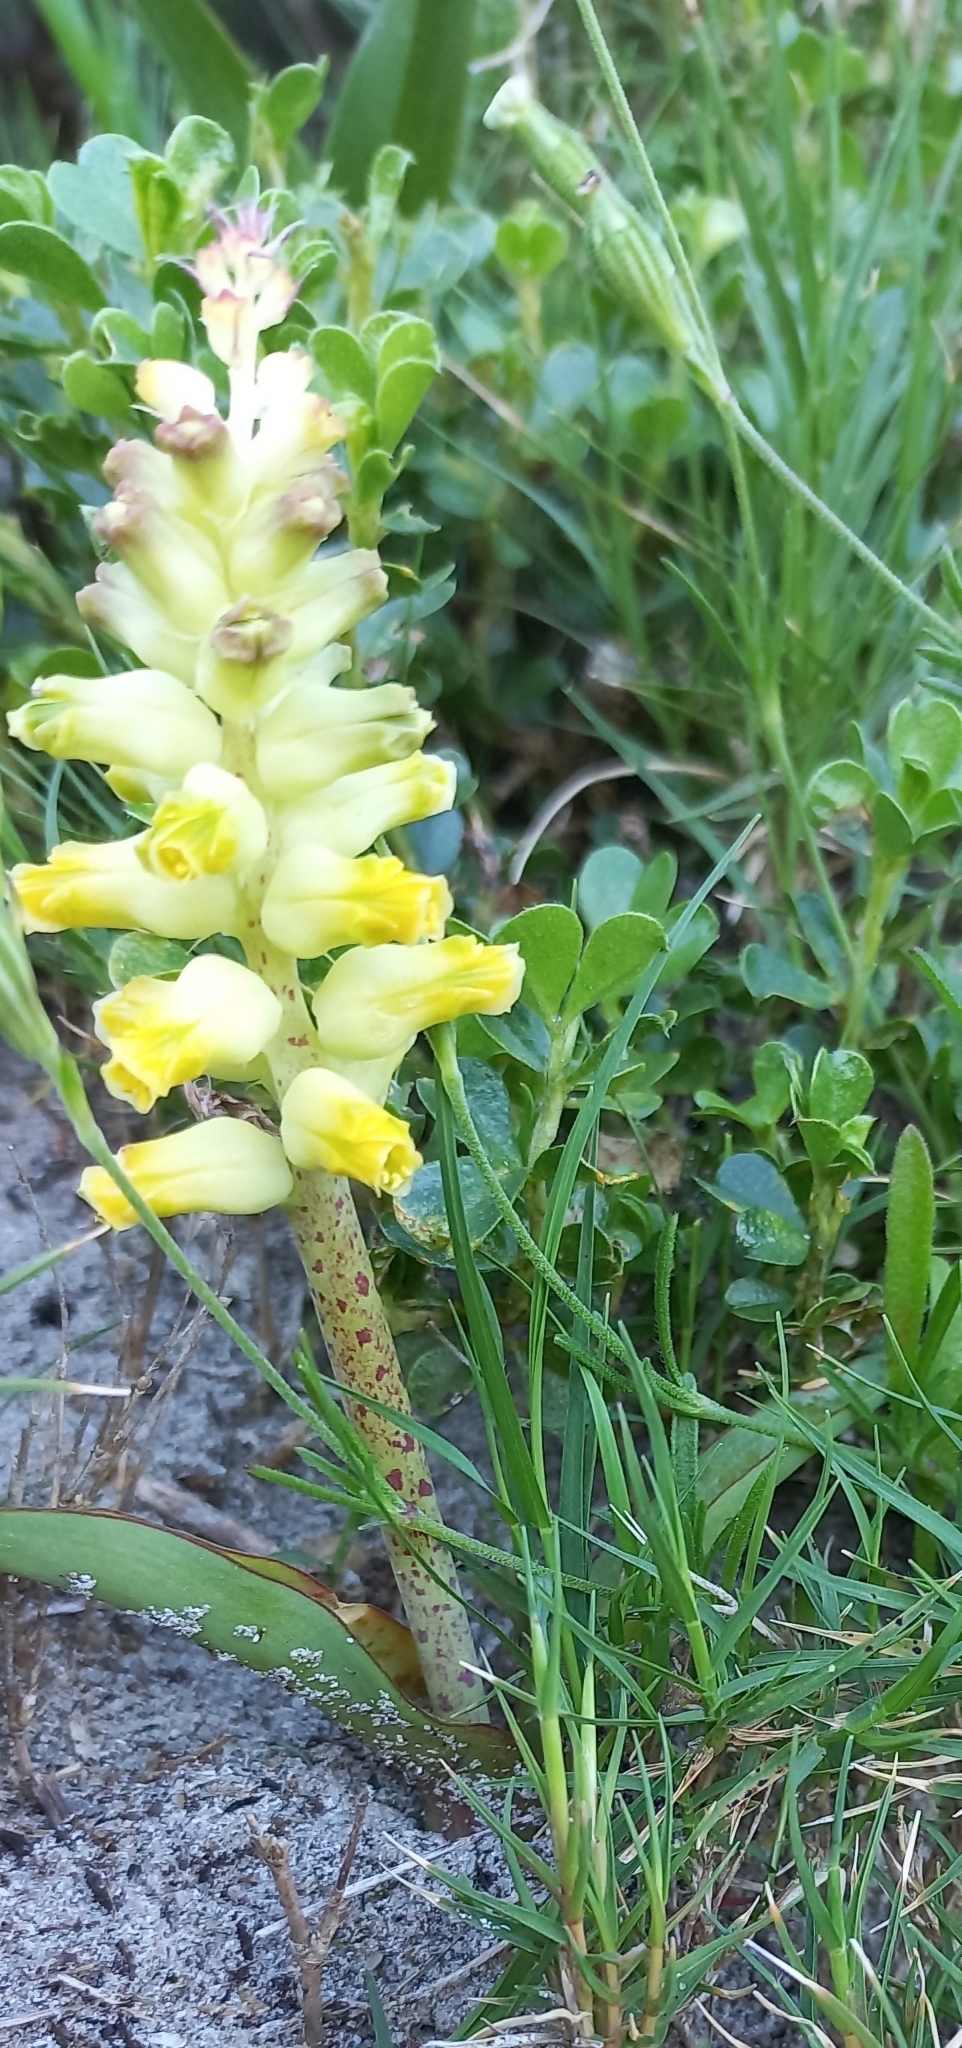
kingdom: Plantae
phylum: Tracheophyta
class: Liliopsida
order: Asparagales
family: Asparagaceae
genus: Lachenalia
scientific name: Lachenalia lutea
